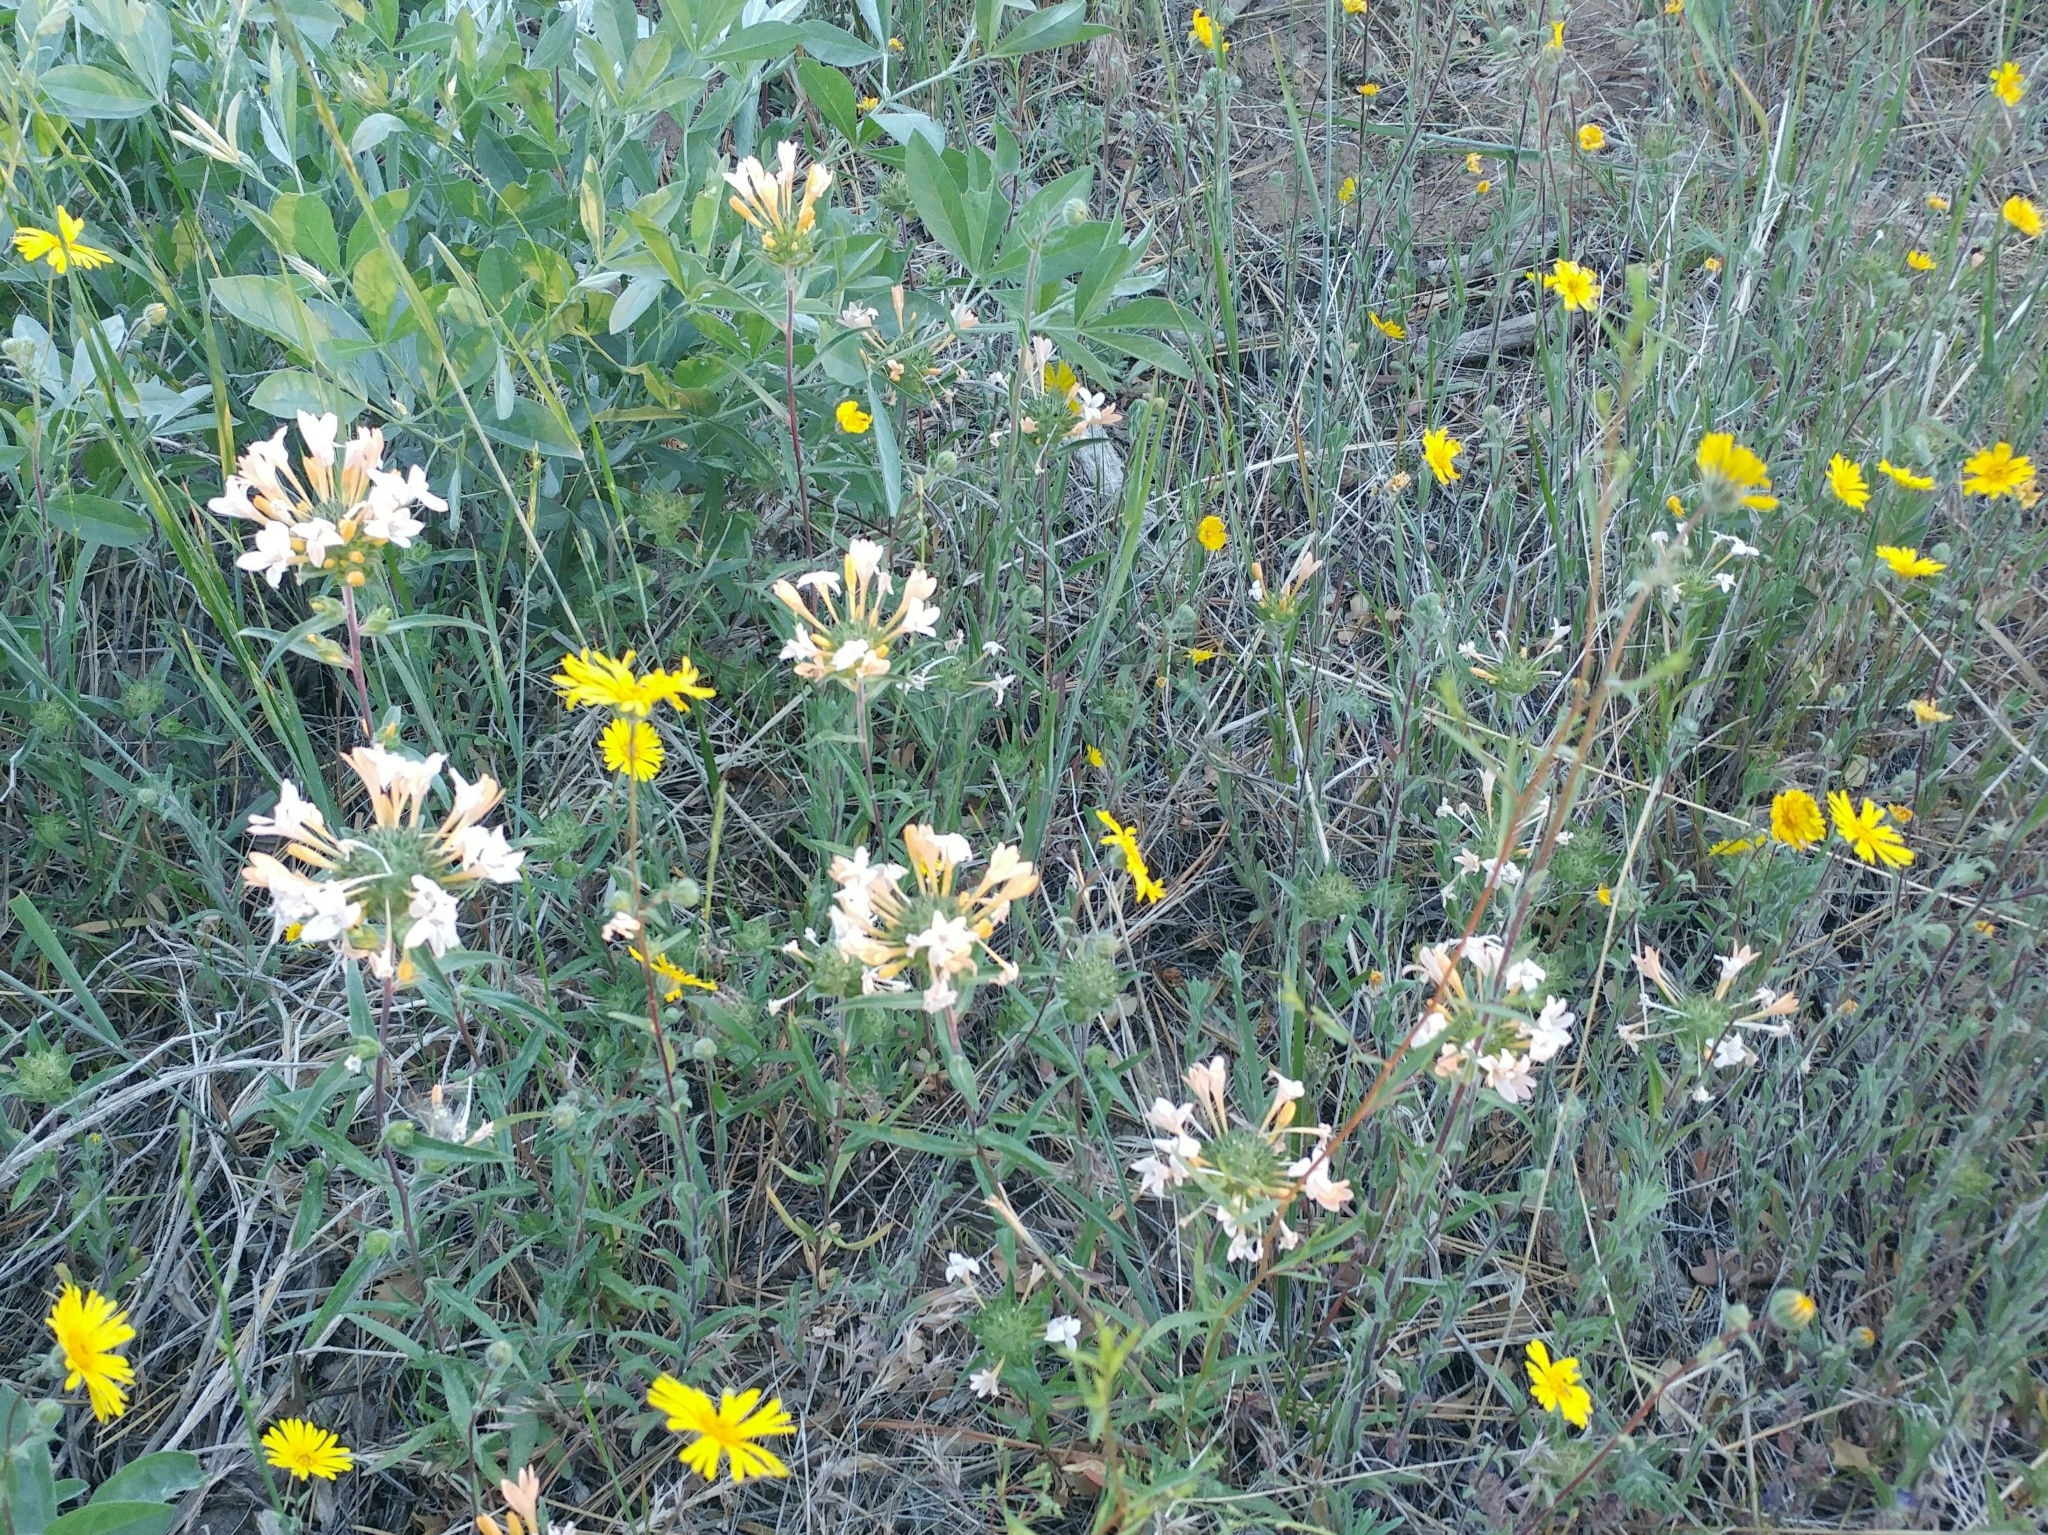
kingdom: Plantae
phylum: Tracheophyta
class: Magnoliopsida
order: Ericales
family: Polemoniaceae
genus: Collomia
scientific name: Collomia grandiflora
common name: California strawflower
